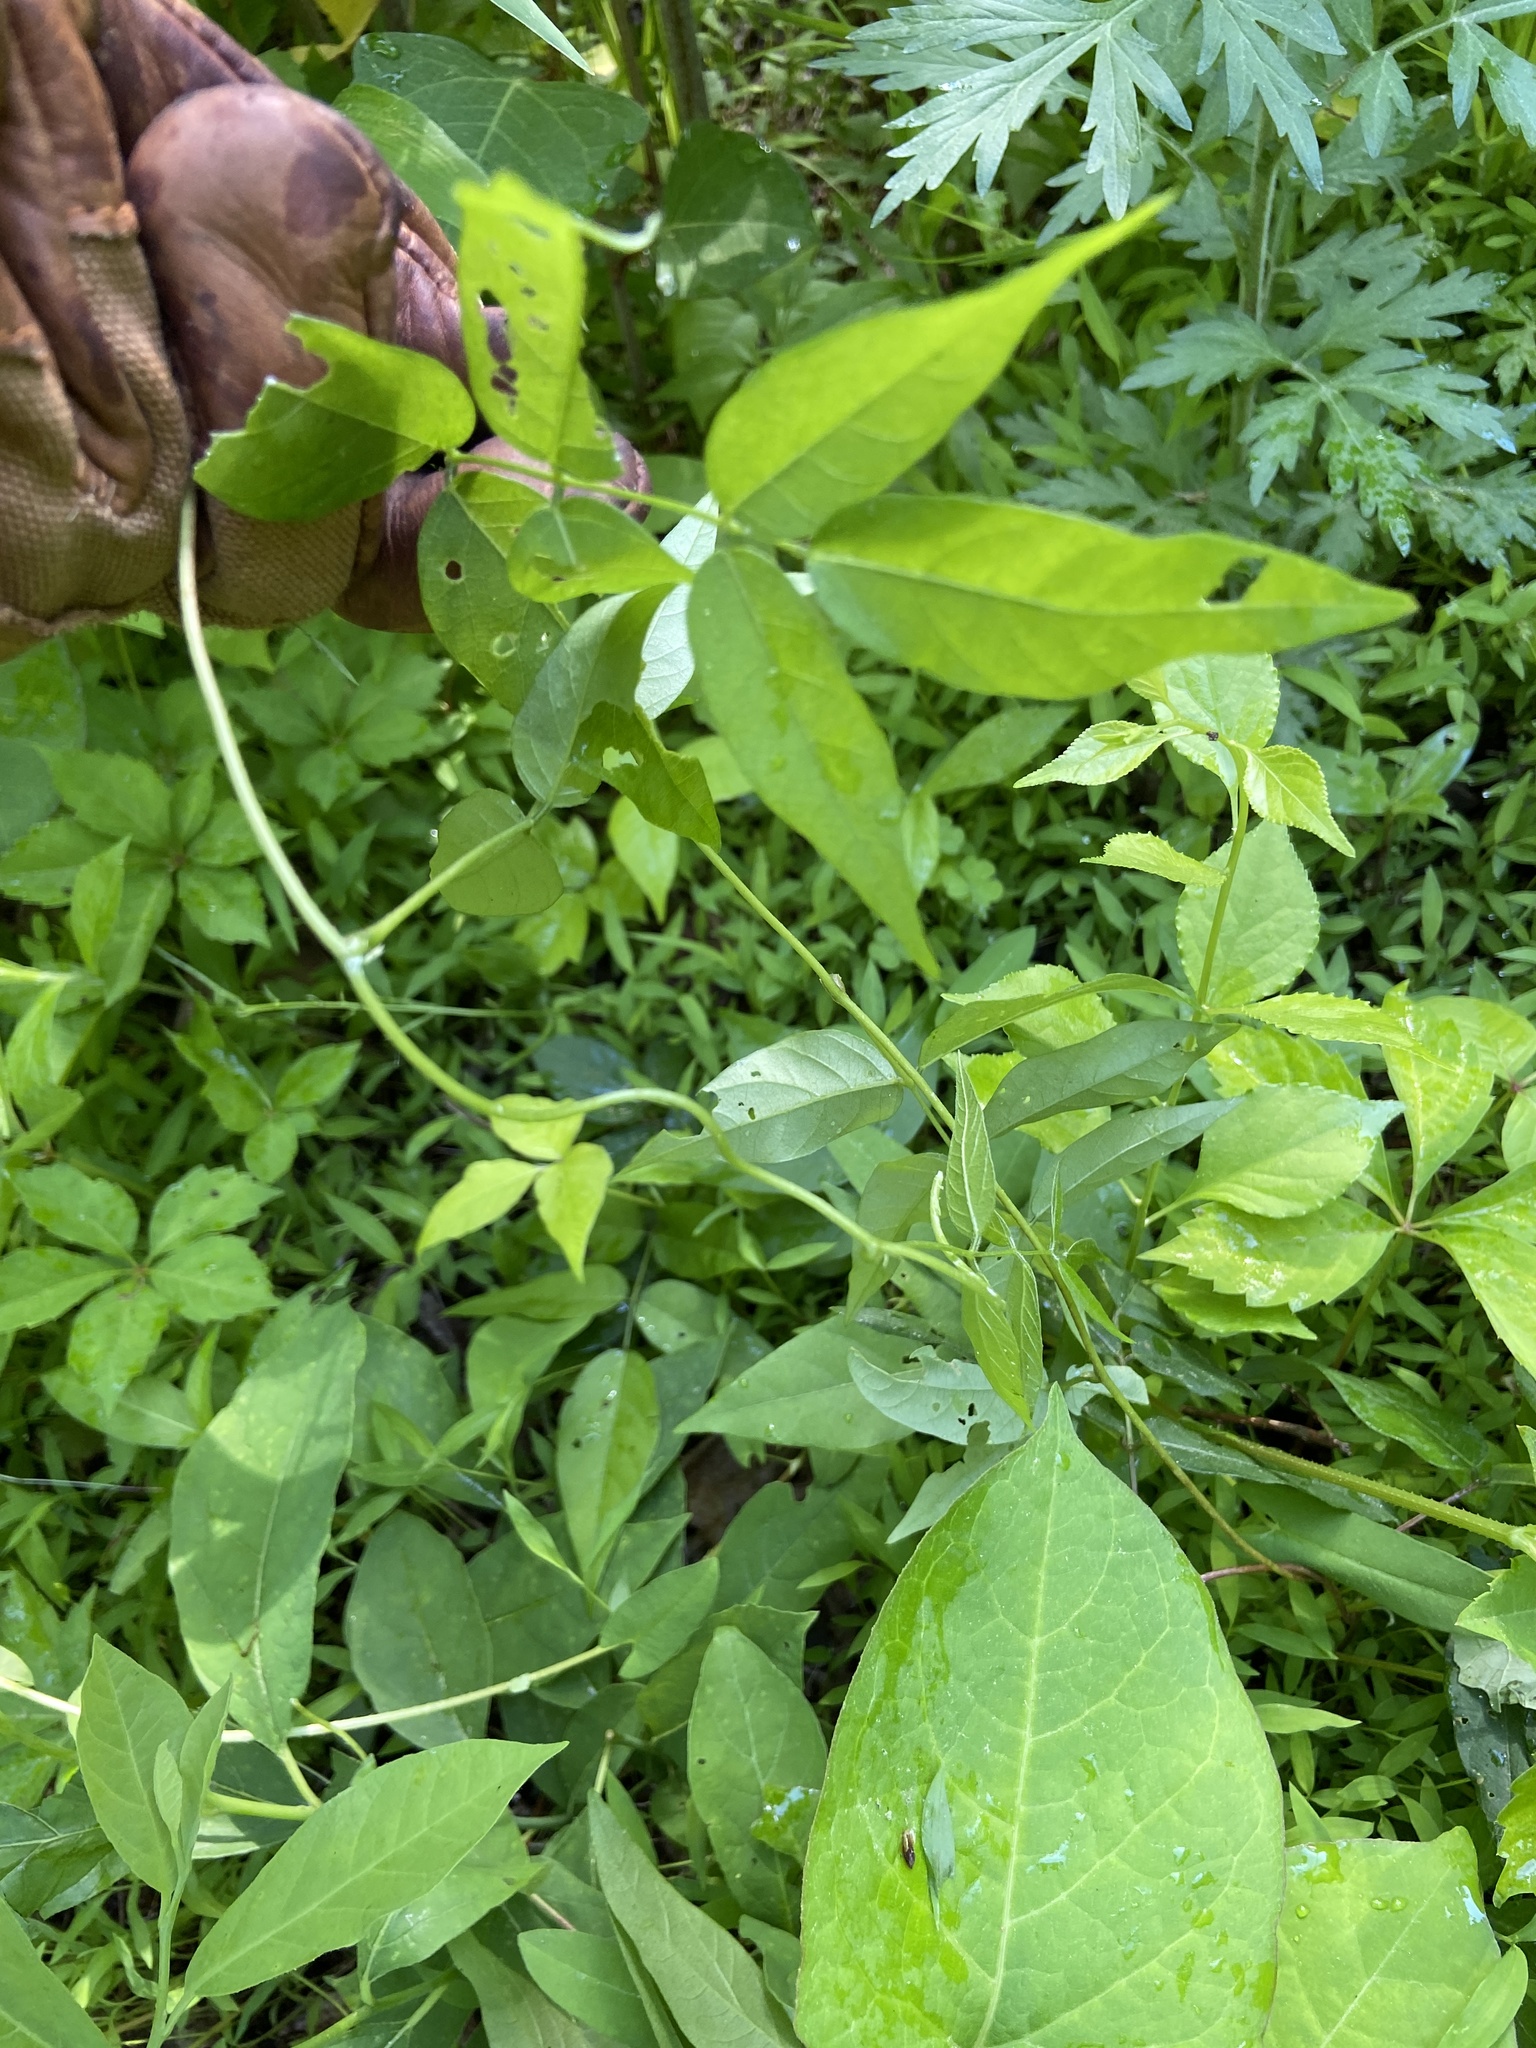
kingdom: Plantae
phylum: Tracheophyta
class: Magnoliopsida
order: Fabales
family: Fabaceae
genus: Apios
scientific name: Apios americana
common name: American potato-bean
